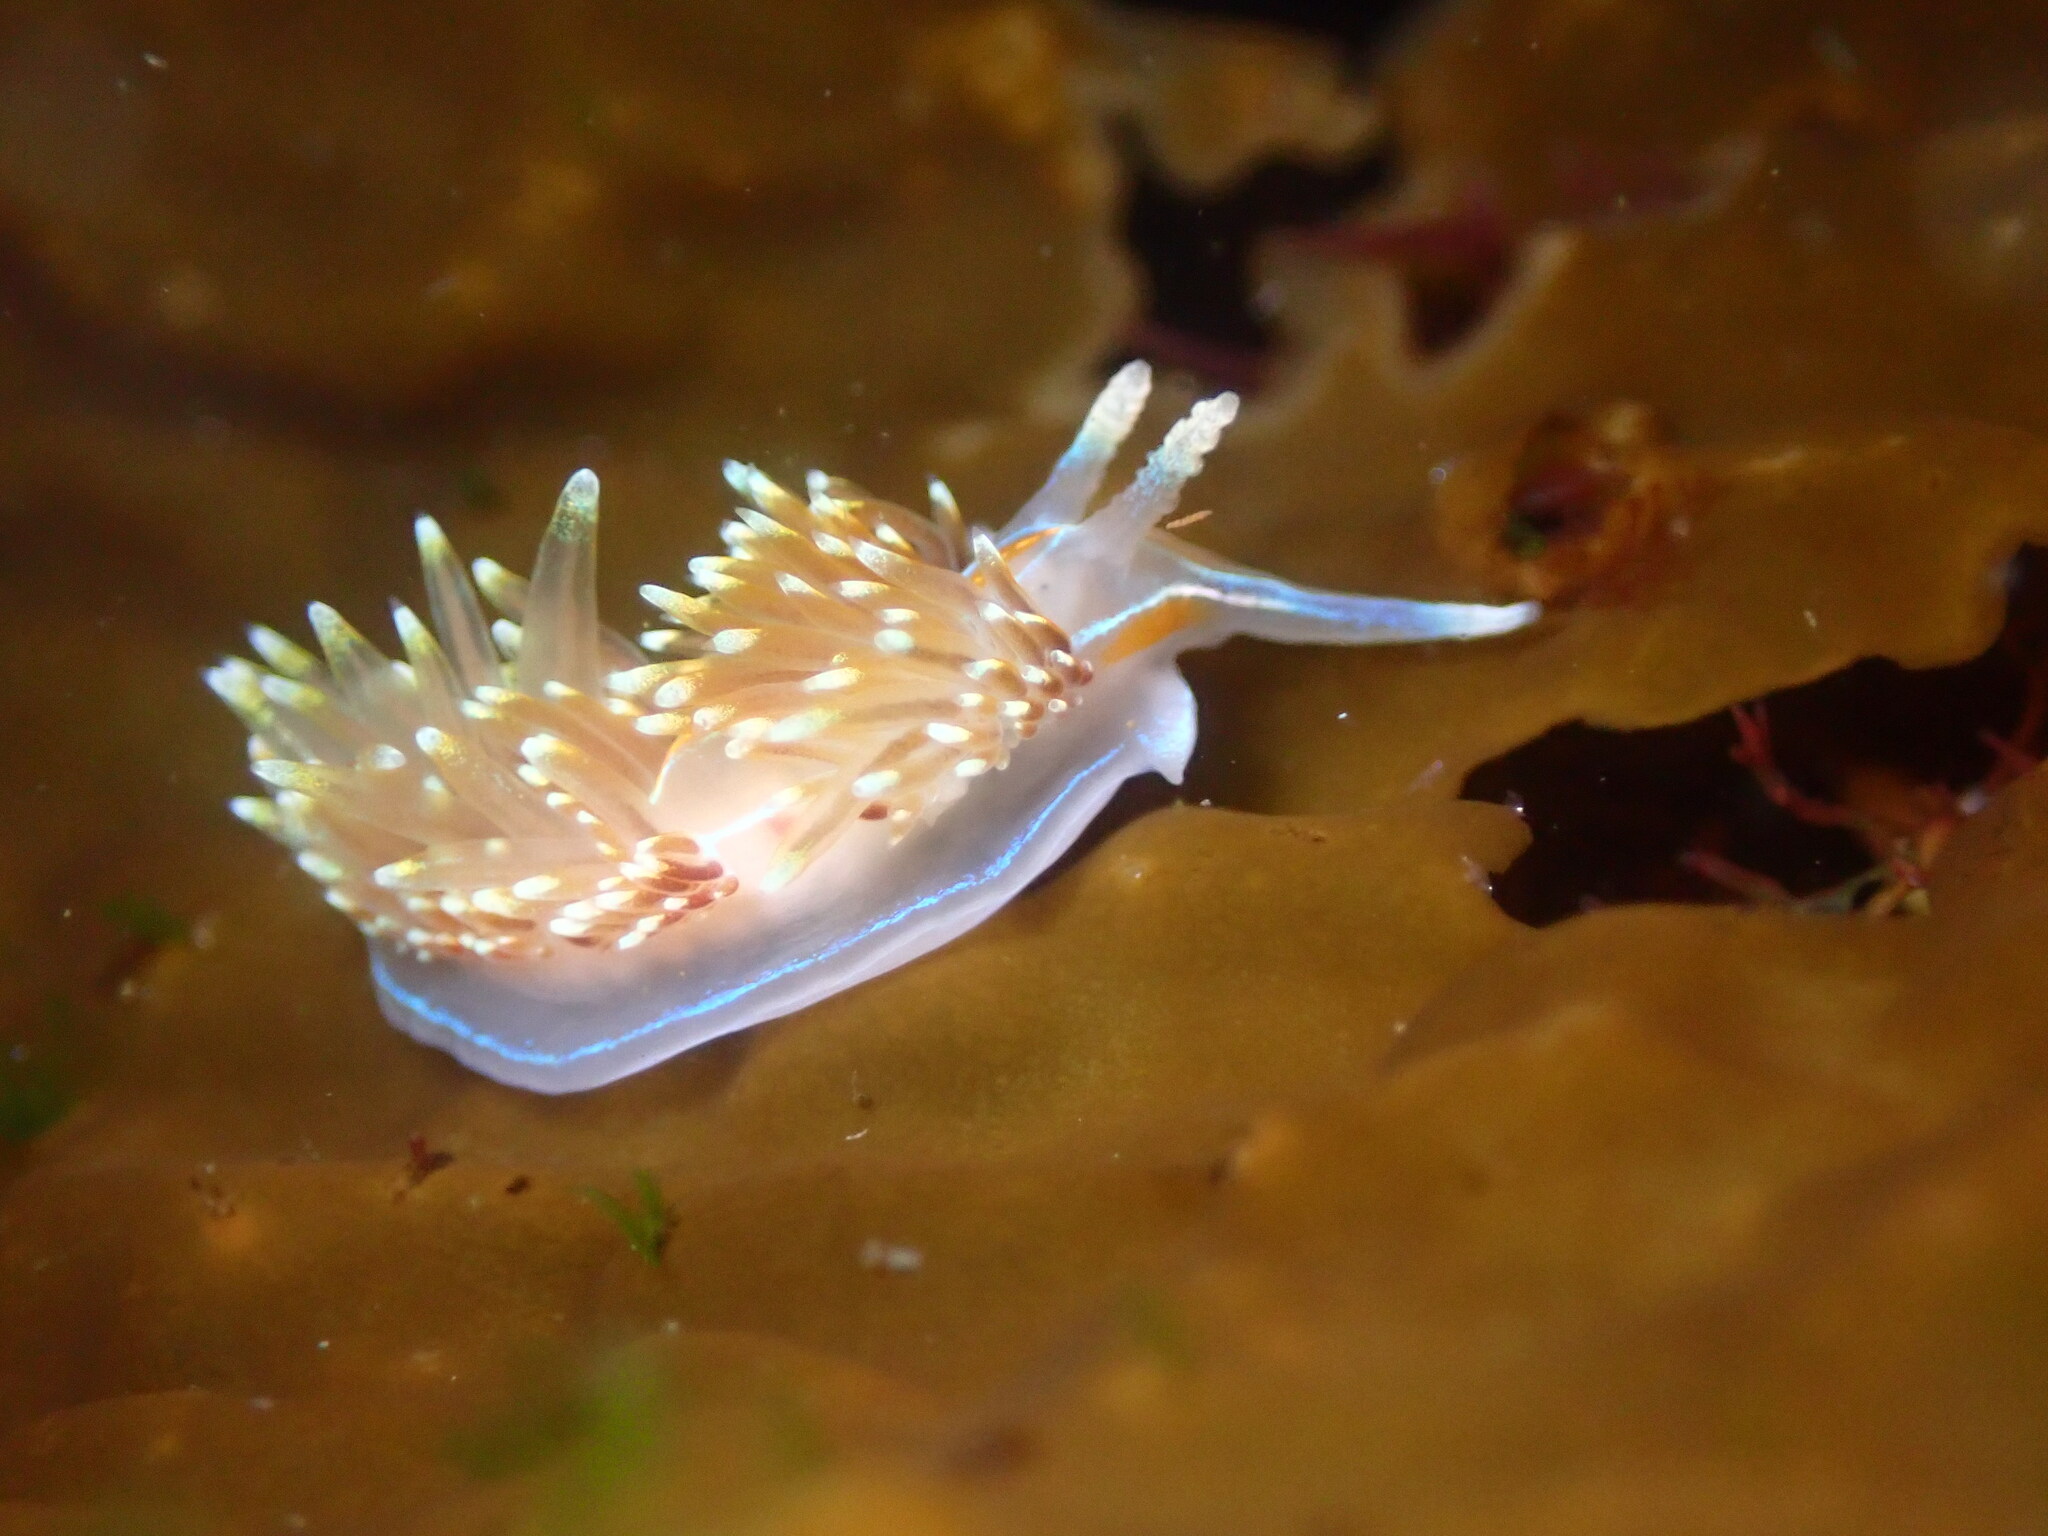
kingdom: Animalia
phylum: Mollusca
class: Gastropoda
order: Nudibranchia
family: Myrrhinidae
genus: Hermissenda
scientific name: Hermissenda opalescens
